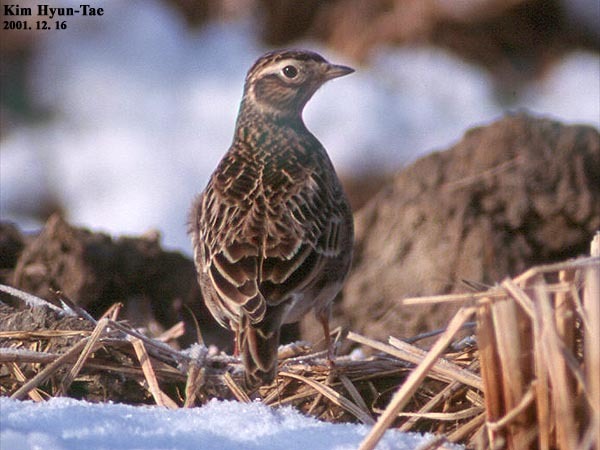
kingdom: Animalia
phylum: Chordata
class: Aves
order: Passeriformes
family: Alaudidae
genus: Alauda
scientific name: Alauda arvensis
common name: Eurasian skylark
